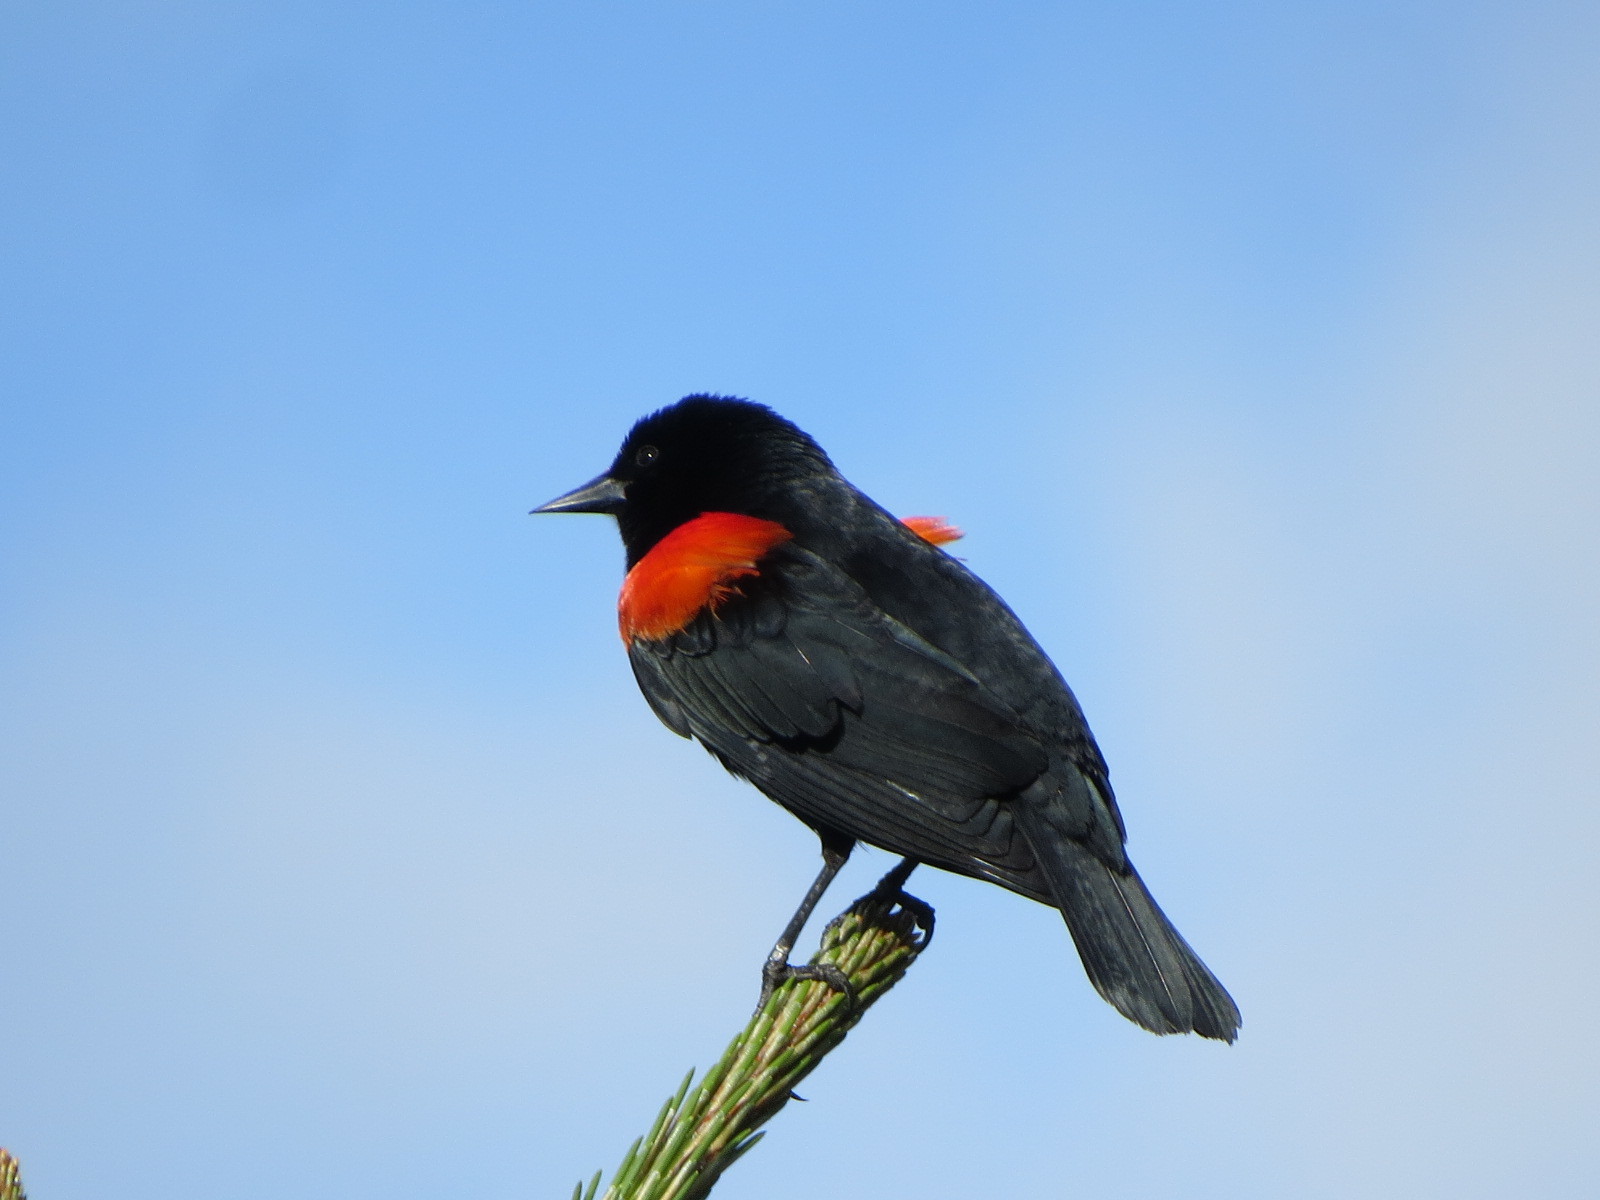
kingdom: Animalia
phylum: Chordata
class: Aves
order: Passeriformes
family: Icteridae
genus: Agelaius
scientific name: Agelaius phoeniceus
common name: Red-winged blackbird
